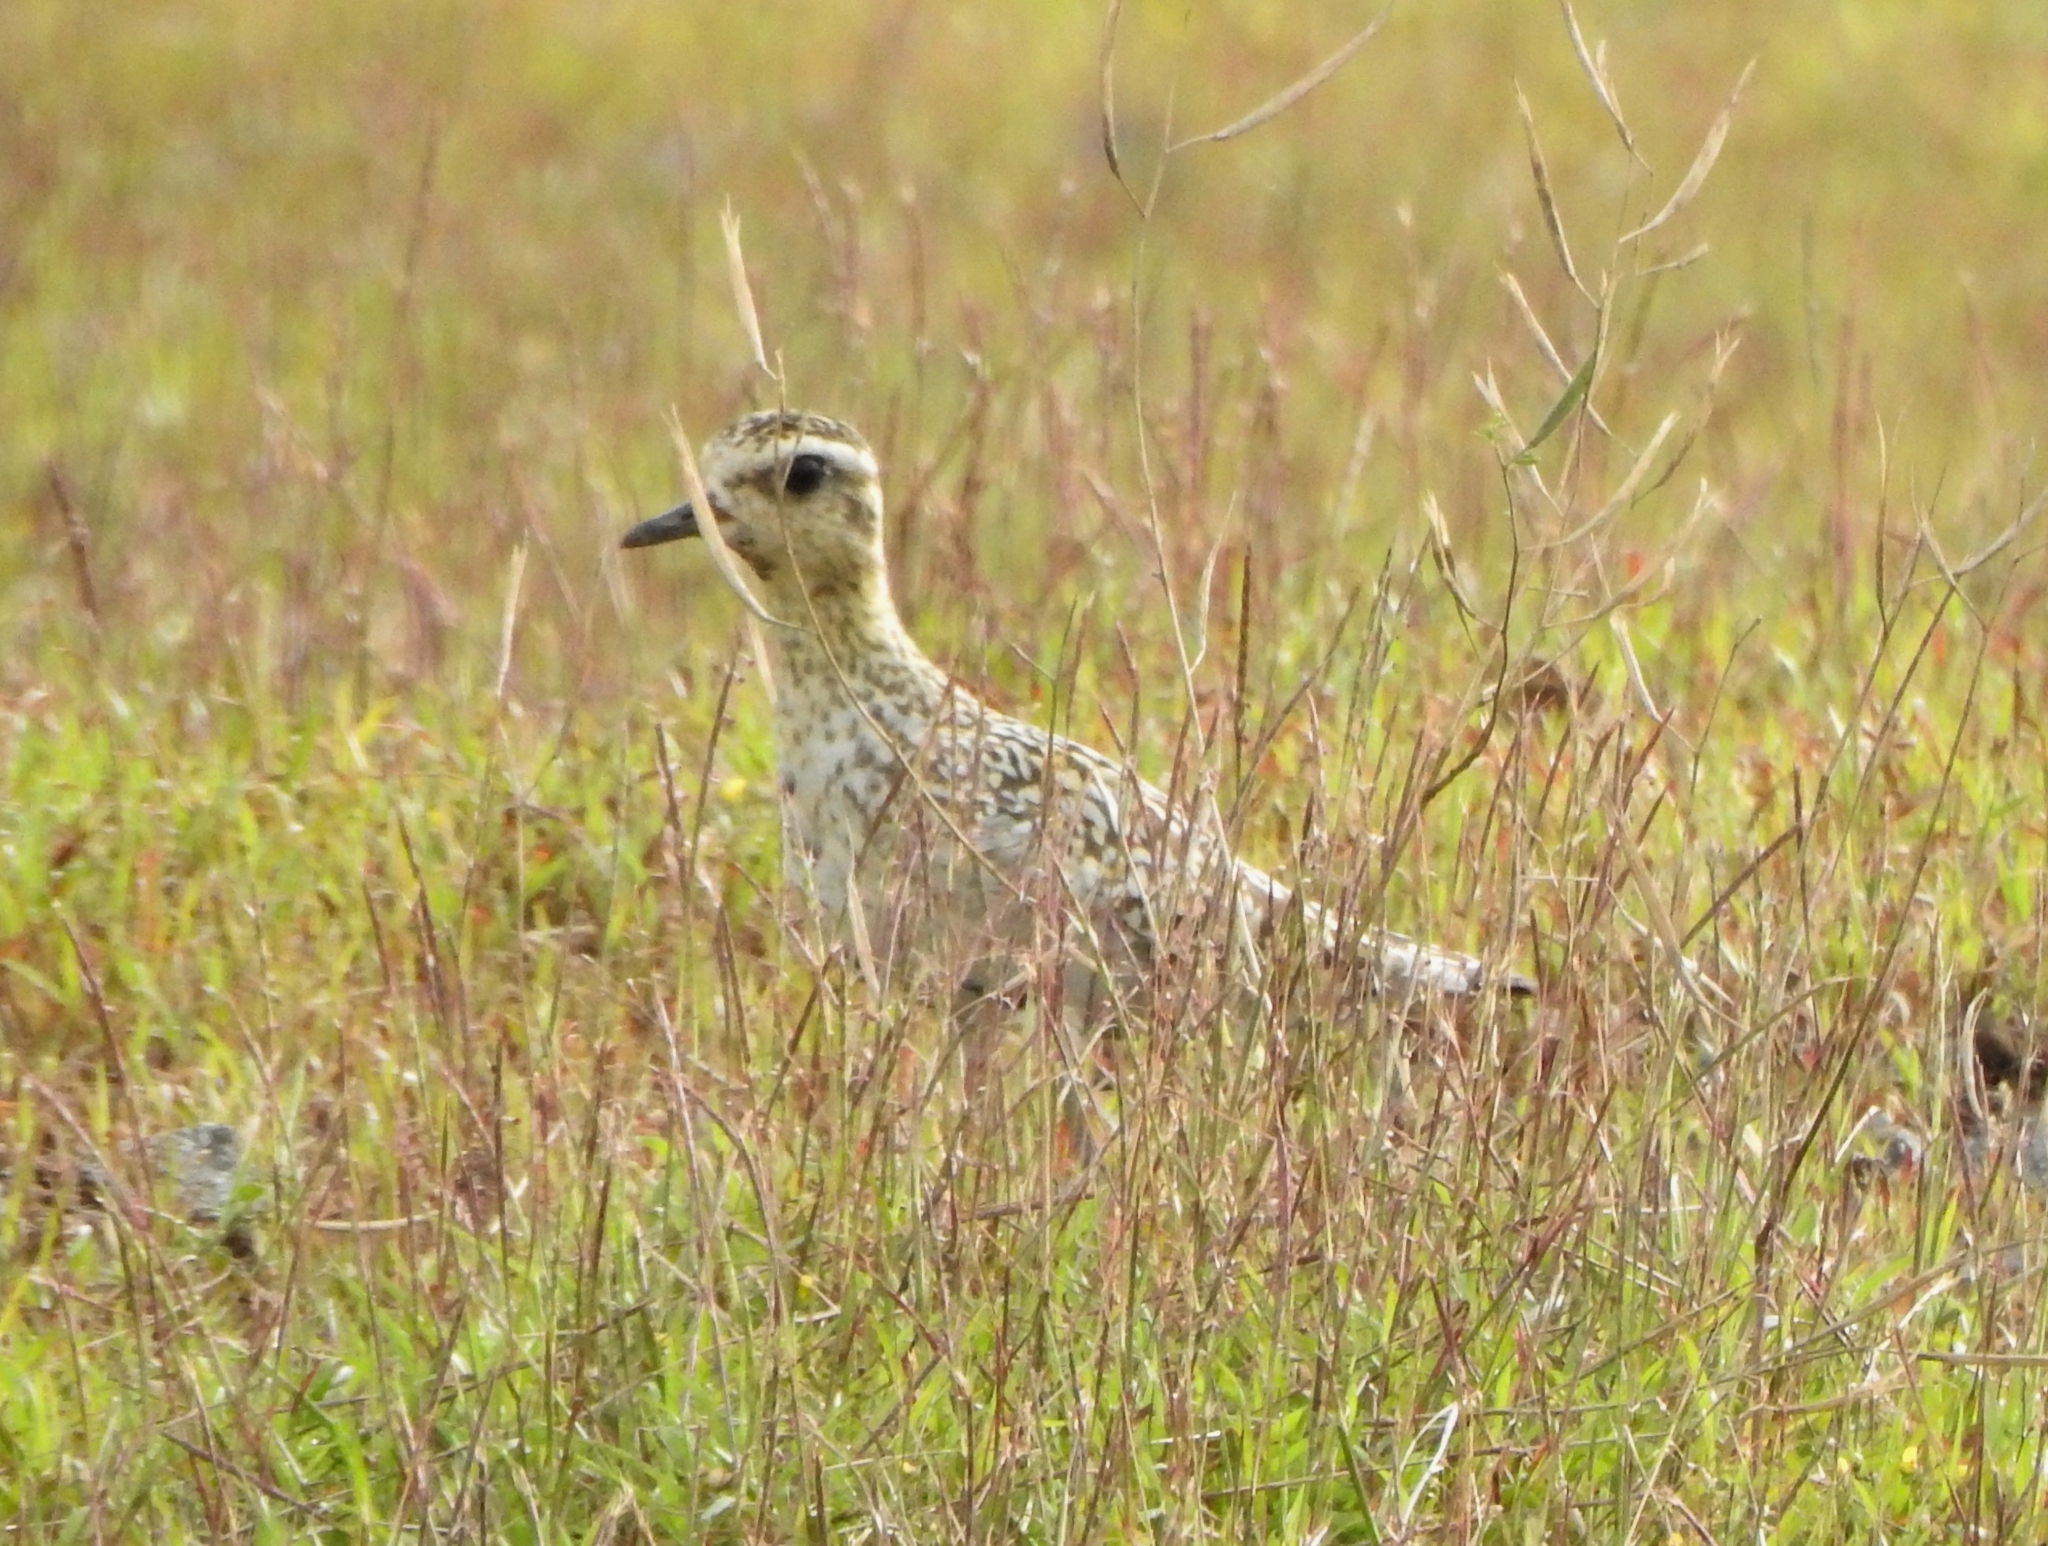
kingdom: Animalia
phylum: Chordata
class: Aves
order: Charadriiformes
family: Charadriidae
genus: Pluvialis
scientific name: Pluvialis fulva
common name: Pacific golden plover
